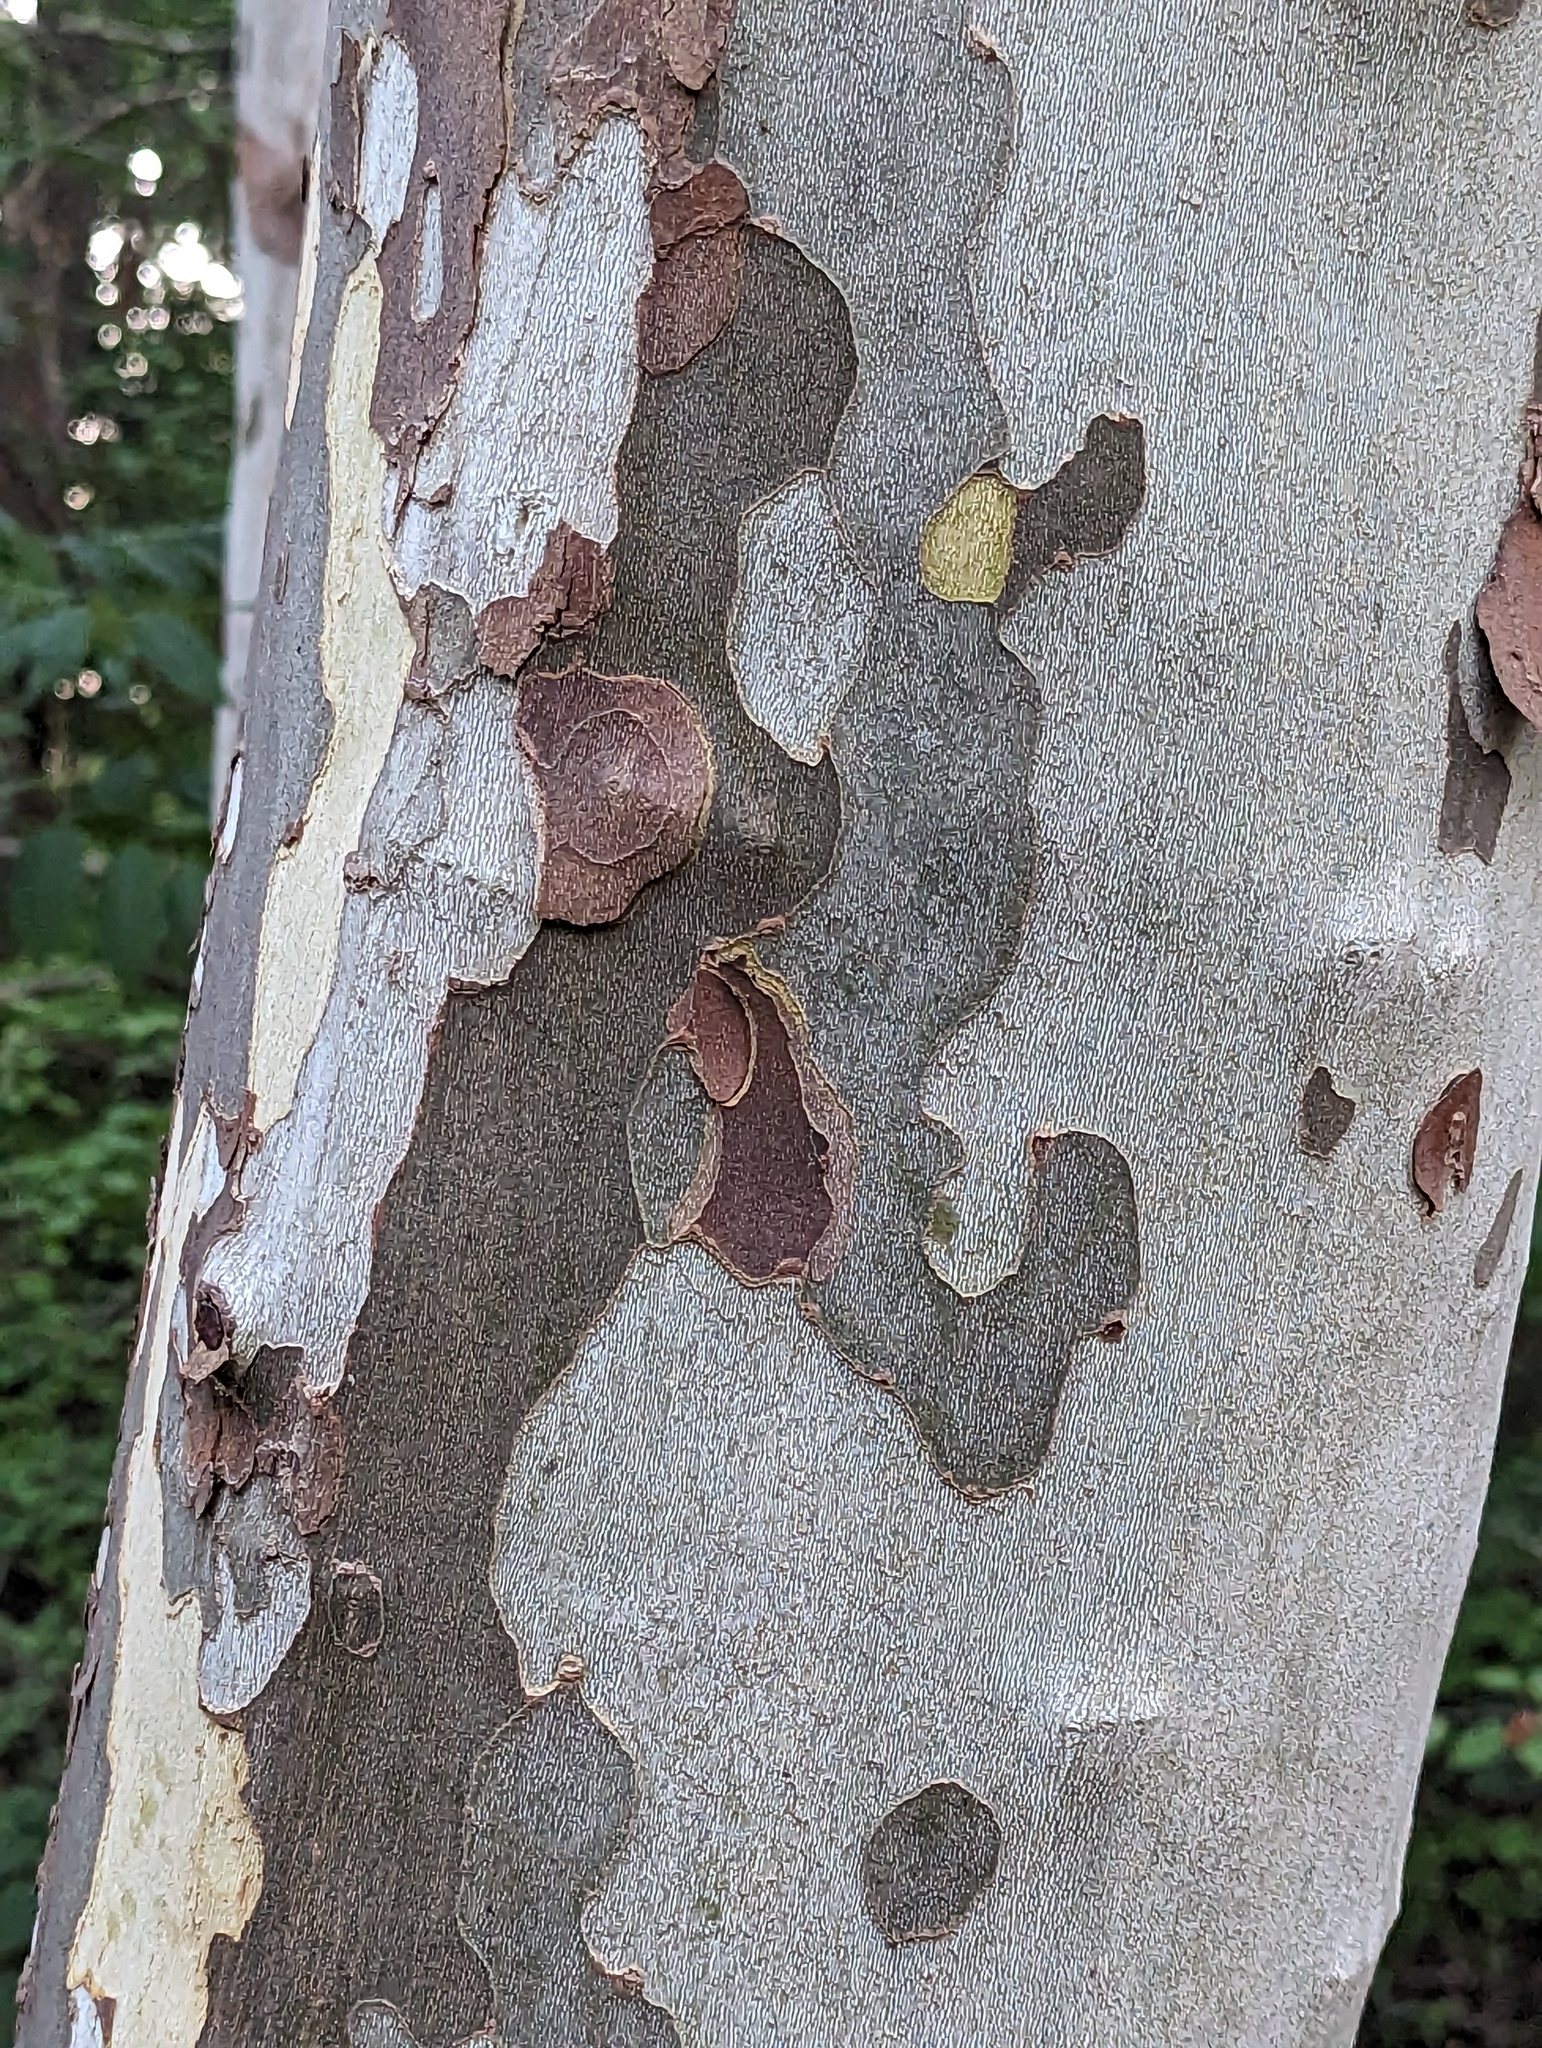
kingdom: Plantae
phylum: Tracheophyta
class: Magnoliopsida
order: Proteales
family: Platanaceae
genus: Platanus
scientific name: Platanus occidentalis
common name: American sycamore
